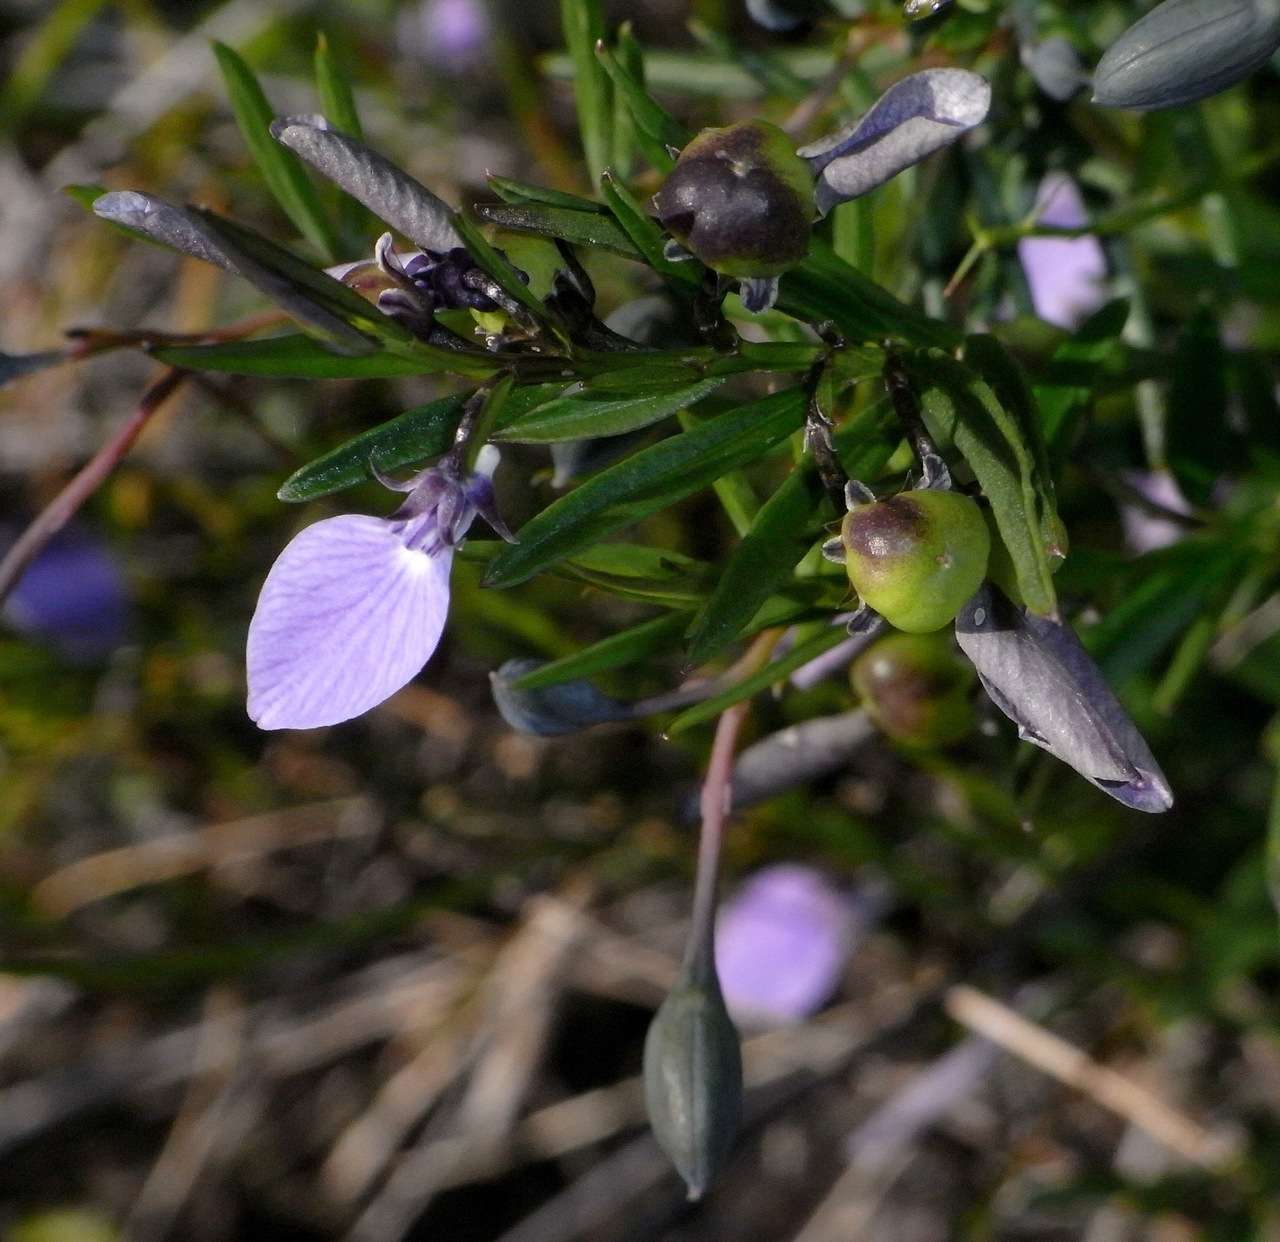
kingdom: Plantae
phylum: Tracheophyta
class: Magnoliopsida
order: Malpighiales
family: Violaceae
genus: Pigea
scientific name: Pigea vernonii
